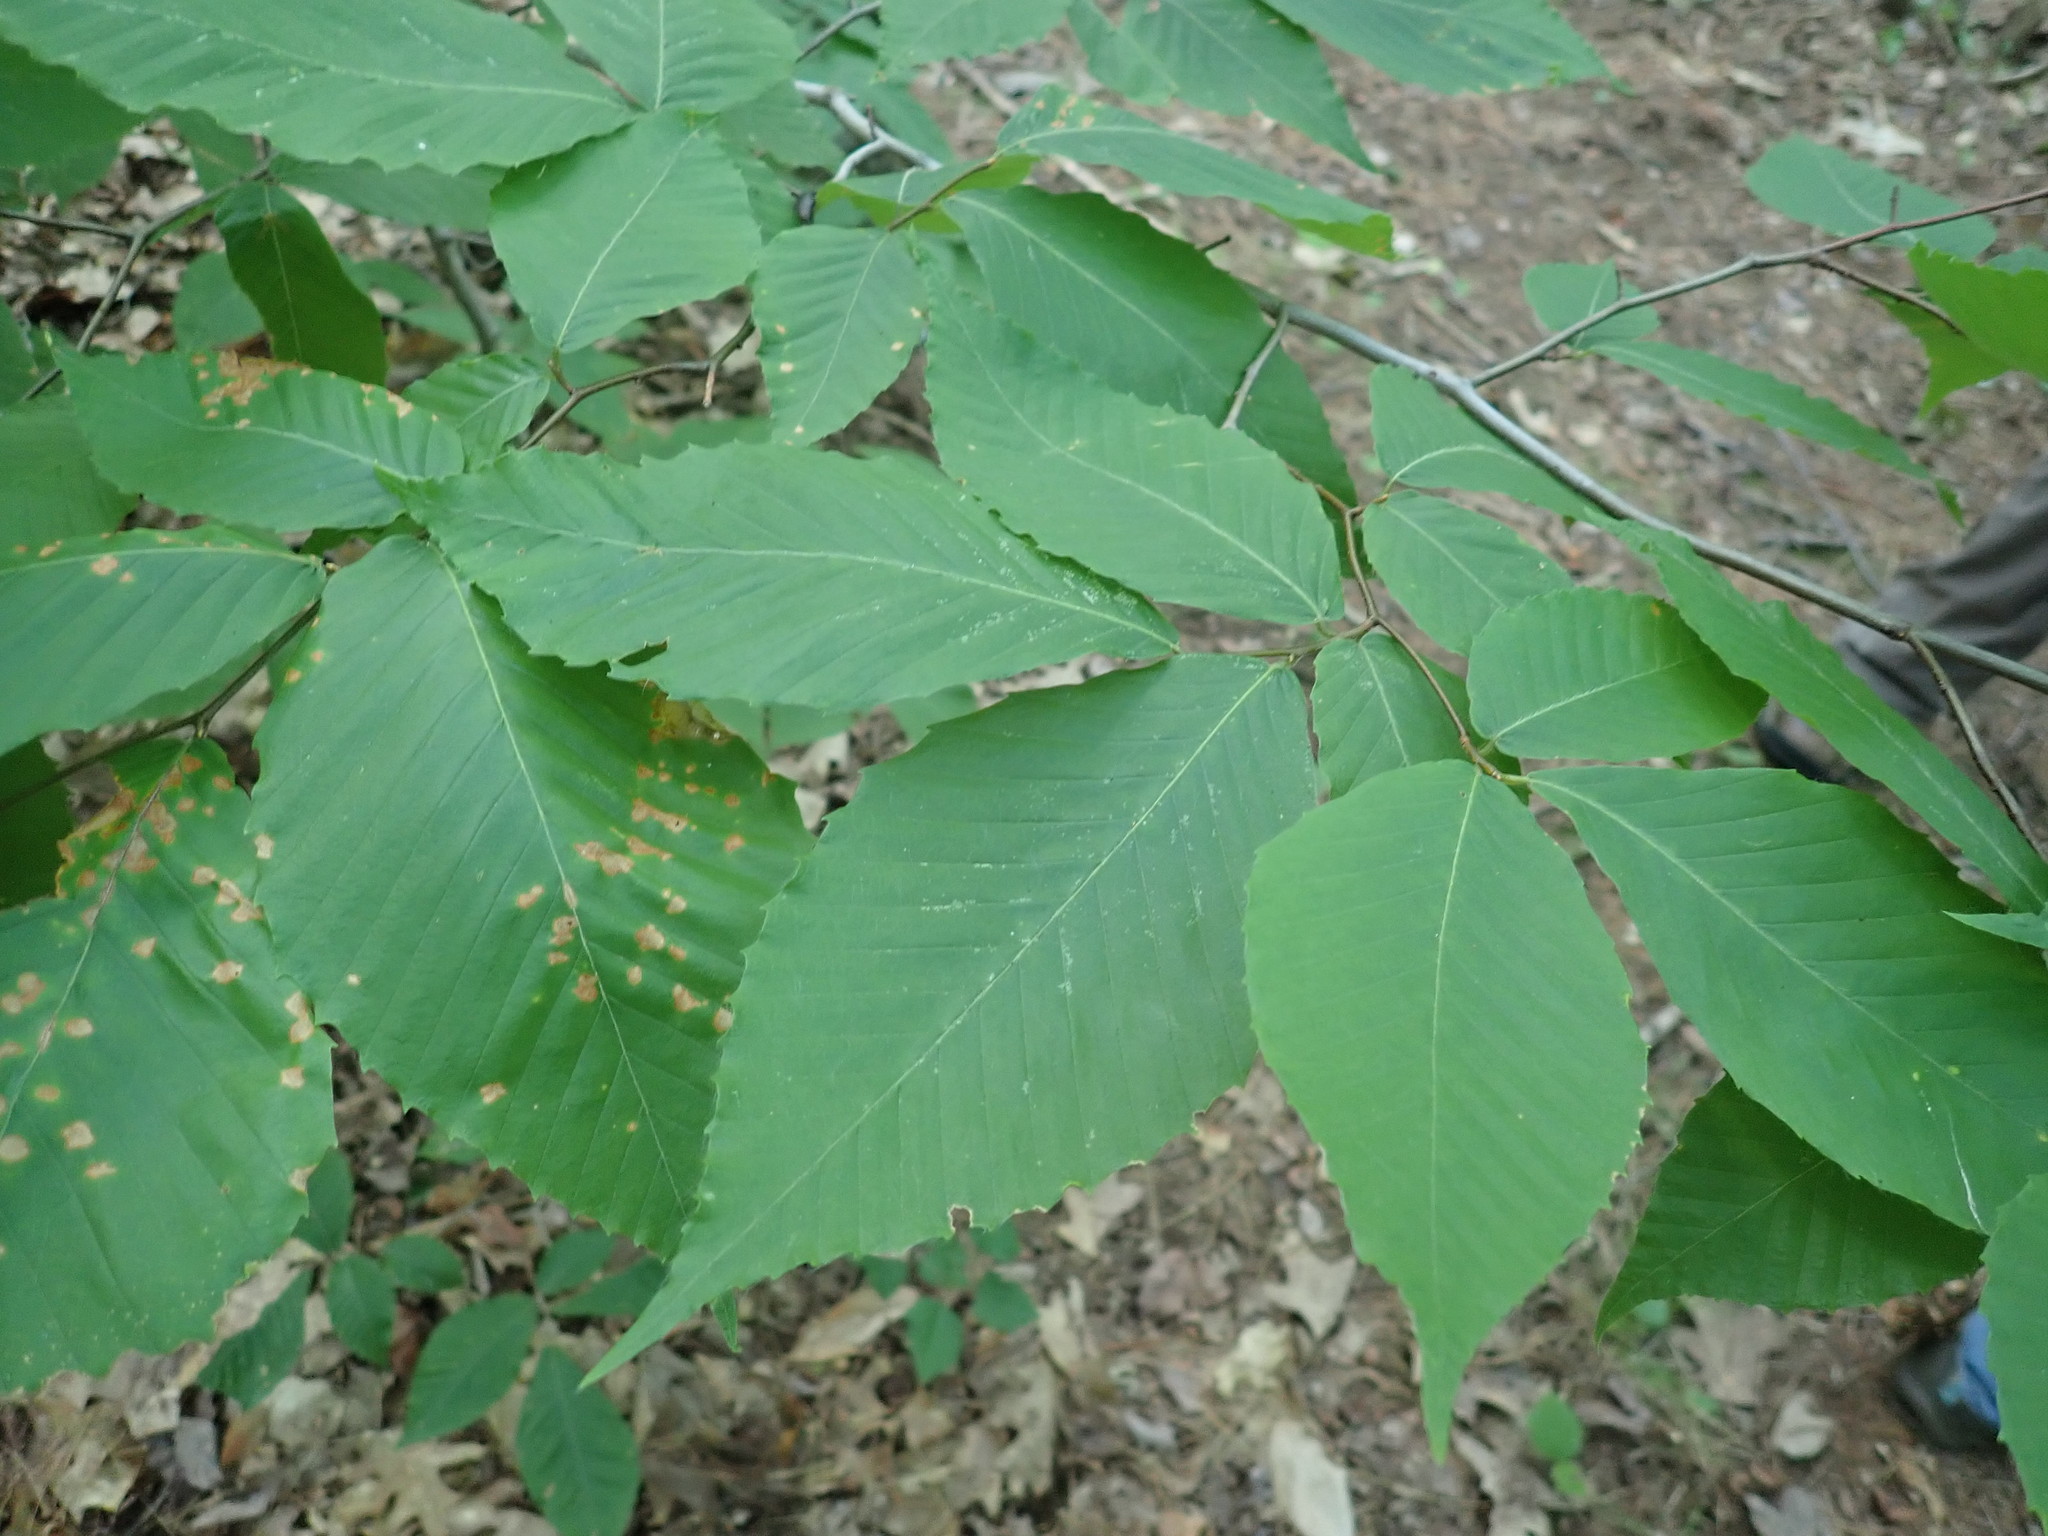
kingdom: Plantae
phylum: Tracheophyta
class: Magnoliopsida
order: Fagales
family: Fagaceae
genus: Fagus
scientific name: Fagus grandifolia
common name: American beech
